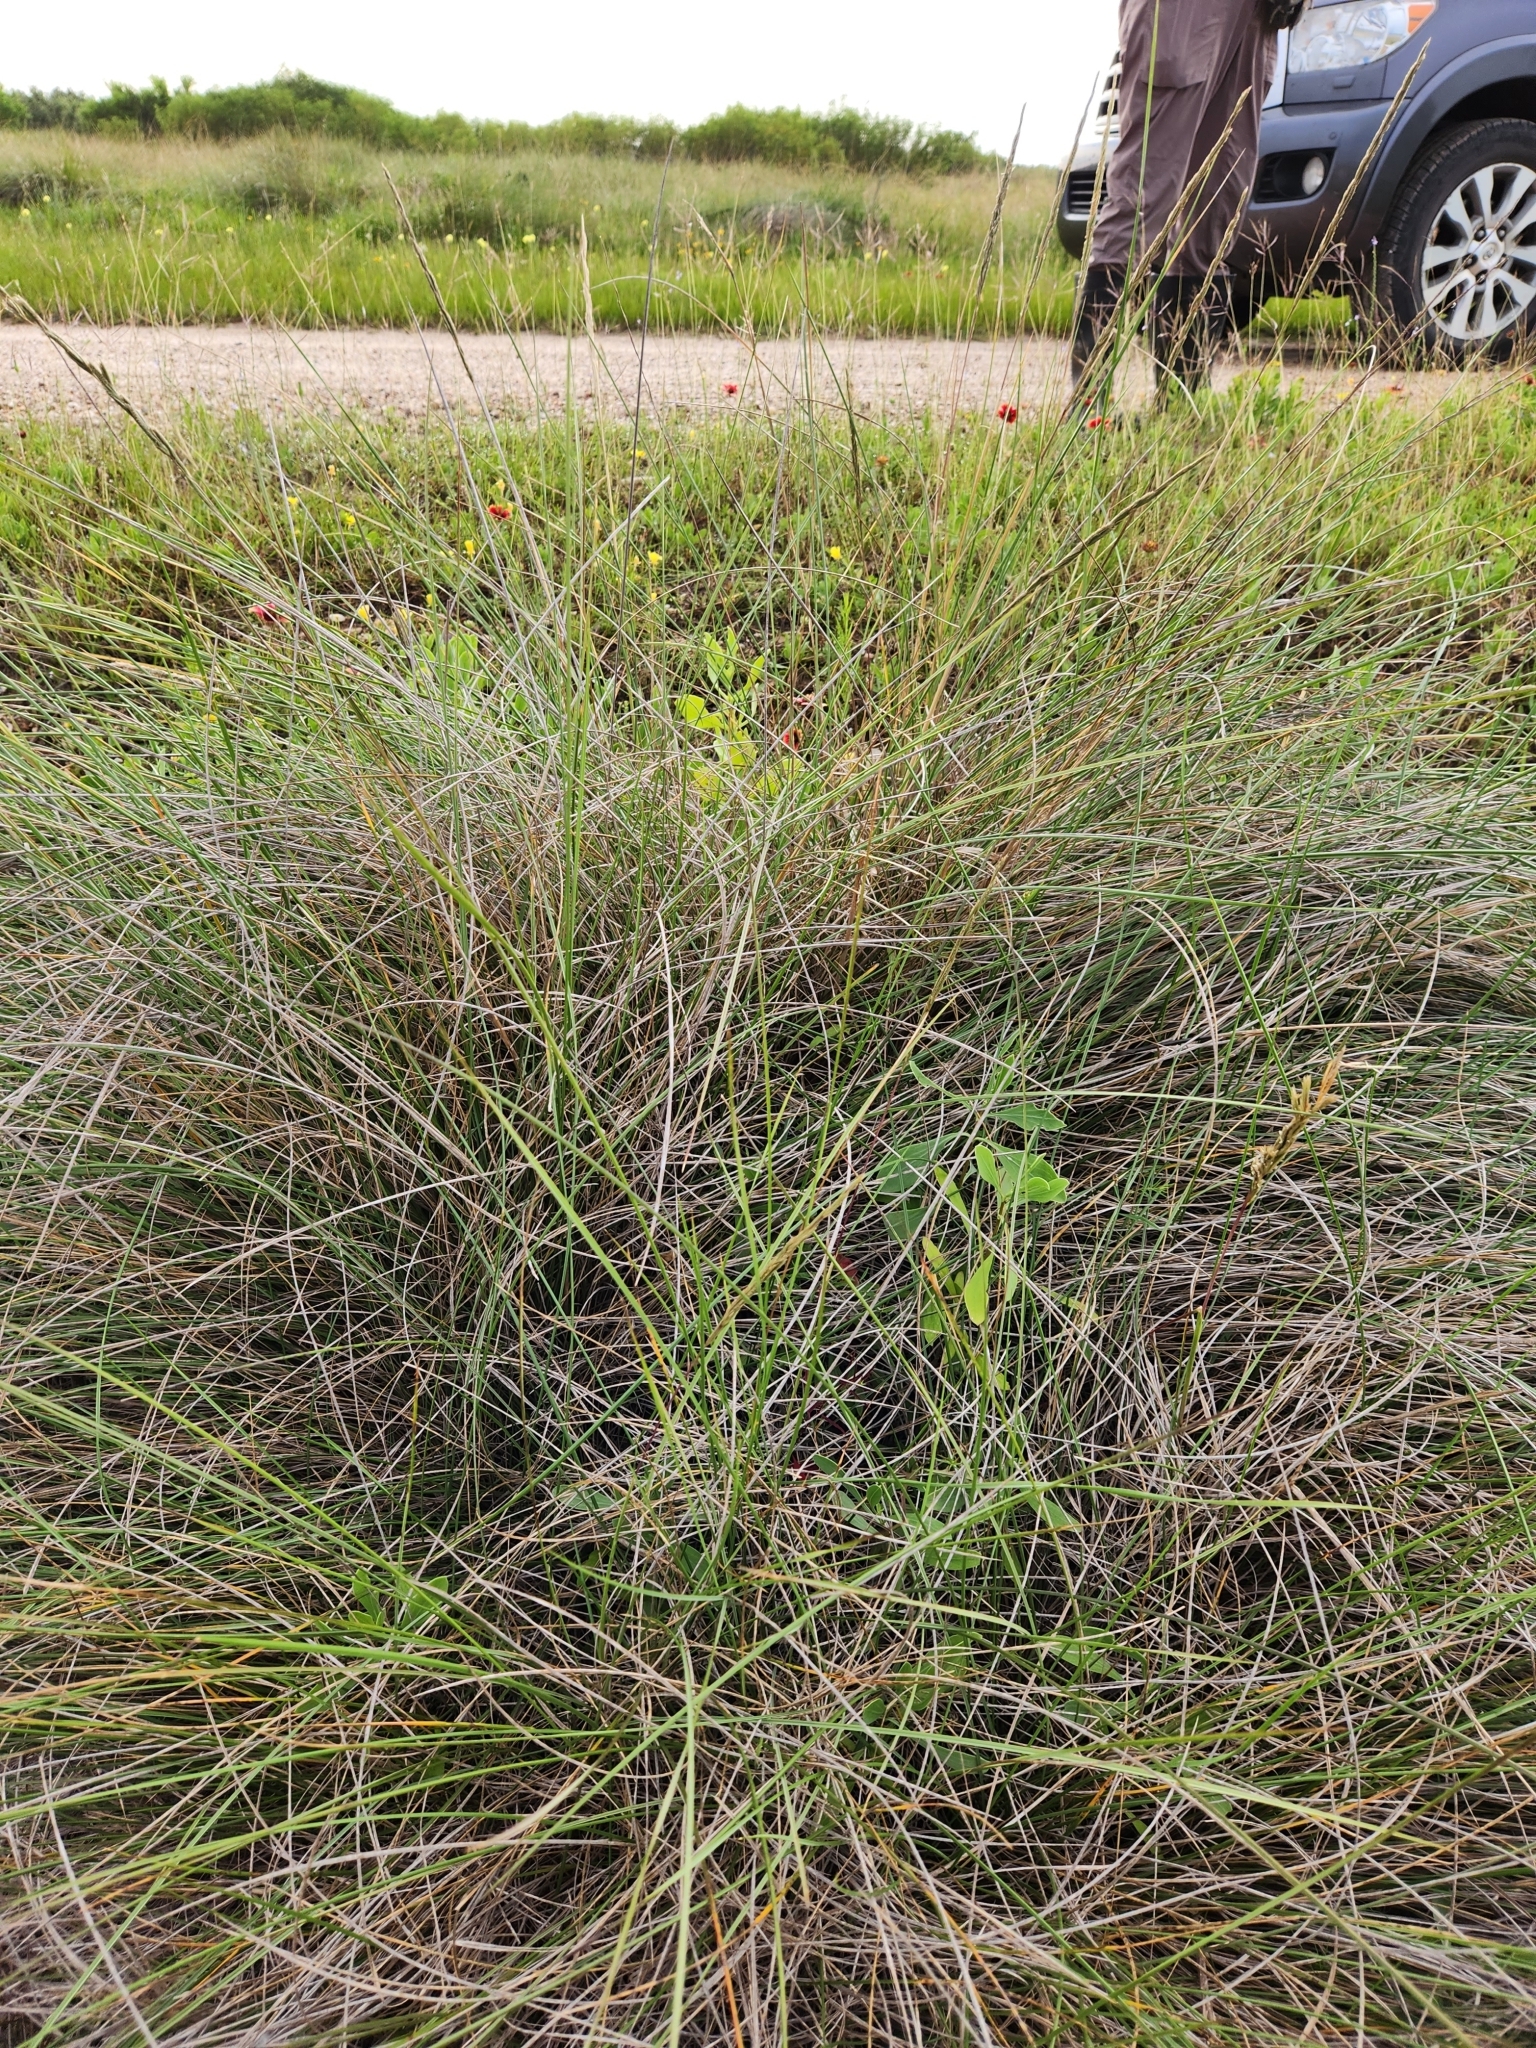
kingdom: Plantae
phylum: Tracheophyta
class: Liliopsida
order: Poales
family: Poaceae
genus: Sporobolus
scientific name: Sporobolus spartinae
